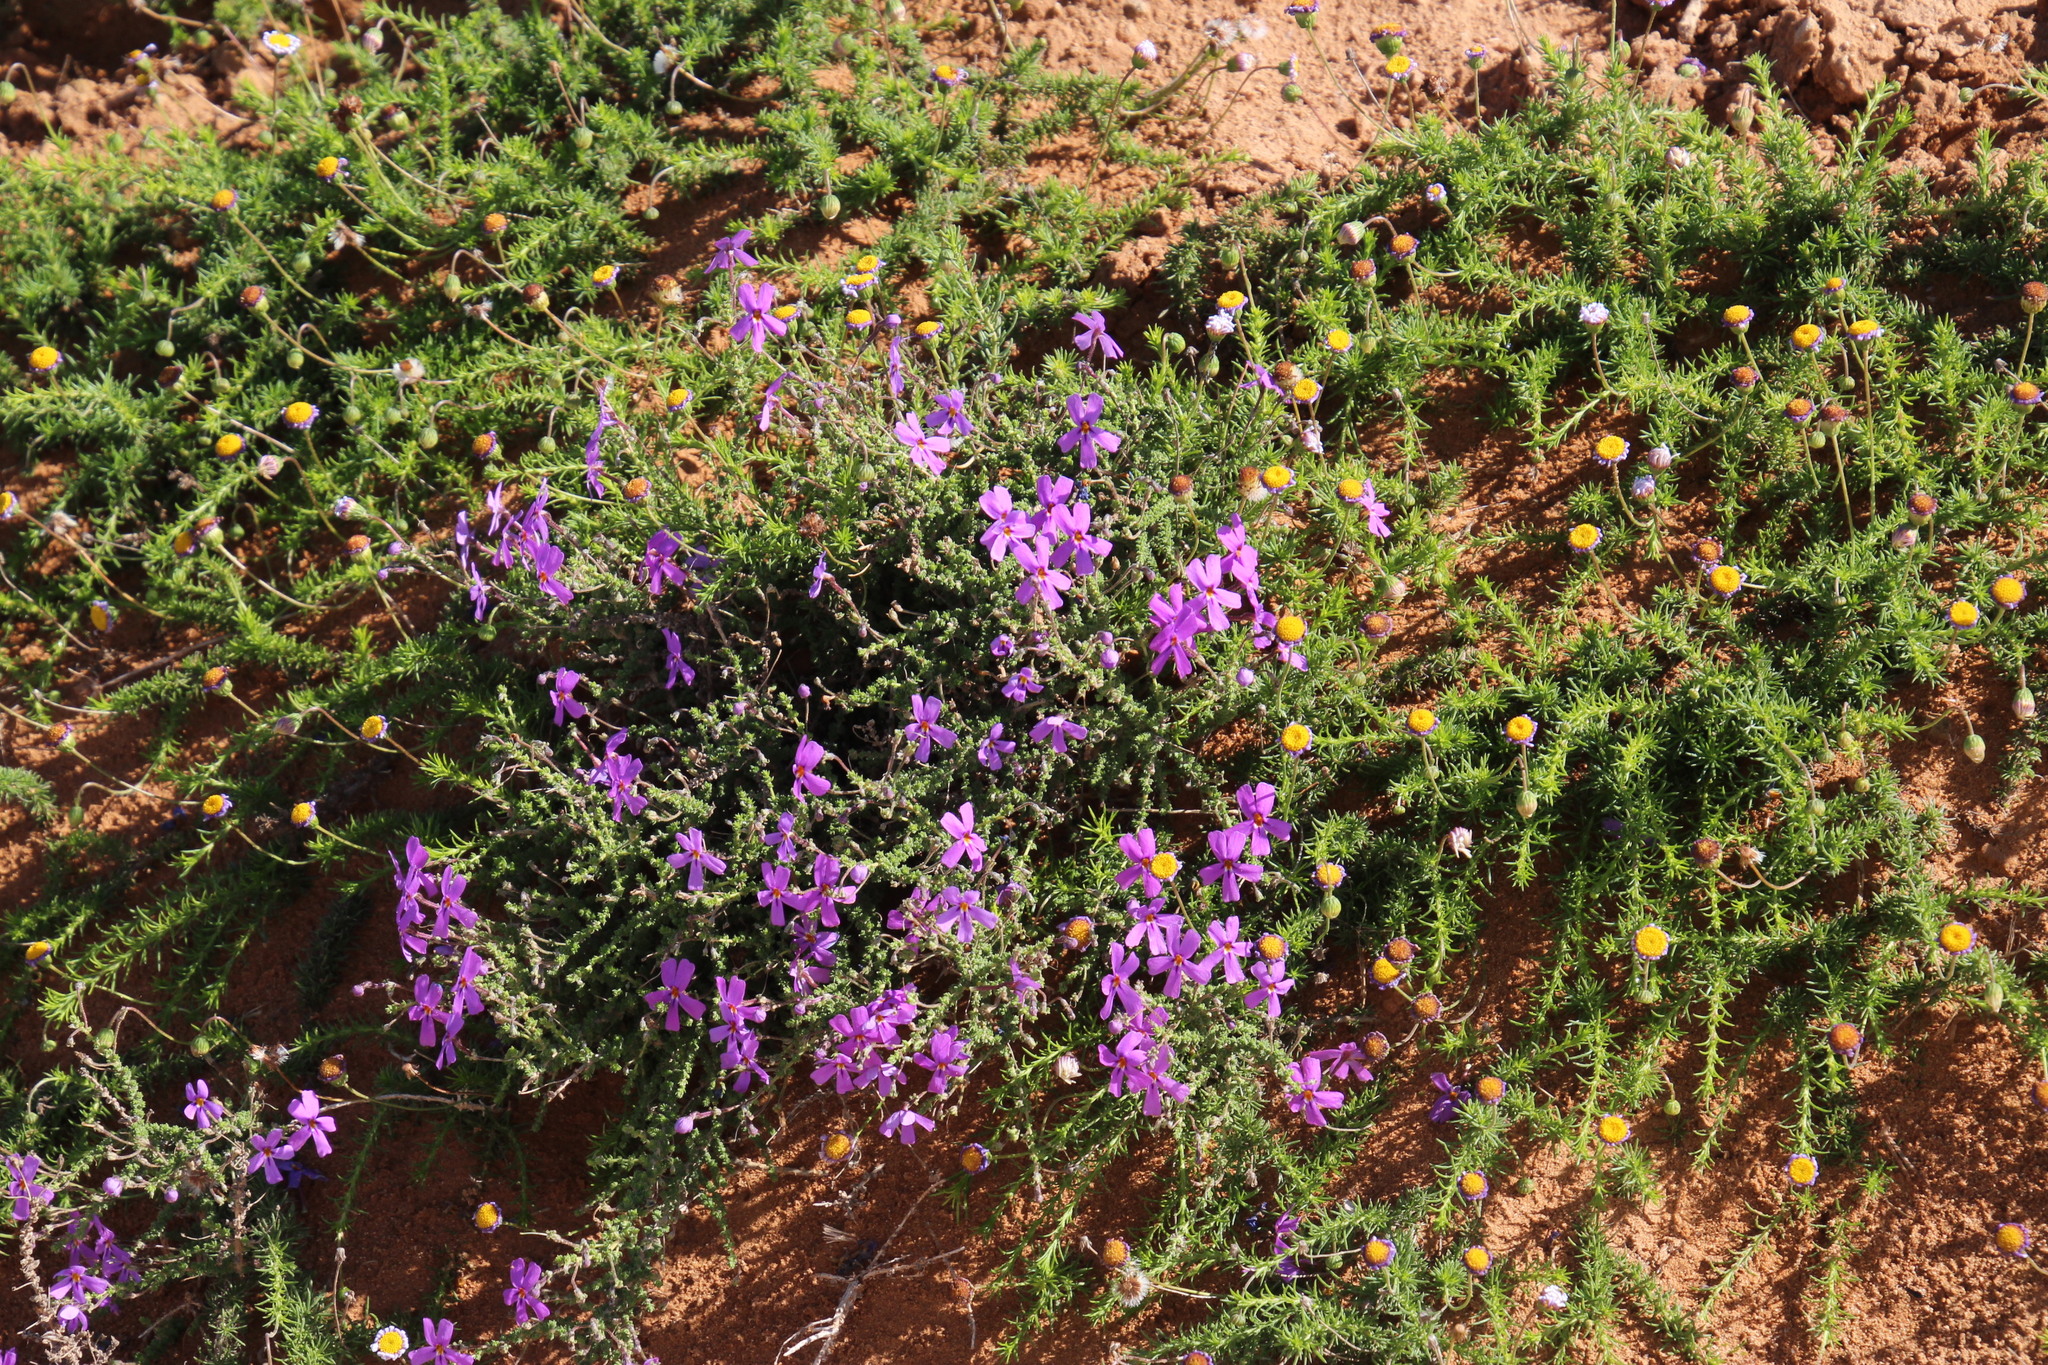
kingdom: Plantae
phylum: Tracheophyta
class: Magnoliopsida
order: Lamiales
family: Scrophulariaceae
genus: Jamesbrittenia
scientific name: Jamesbrittenia microphylla
